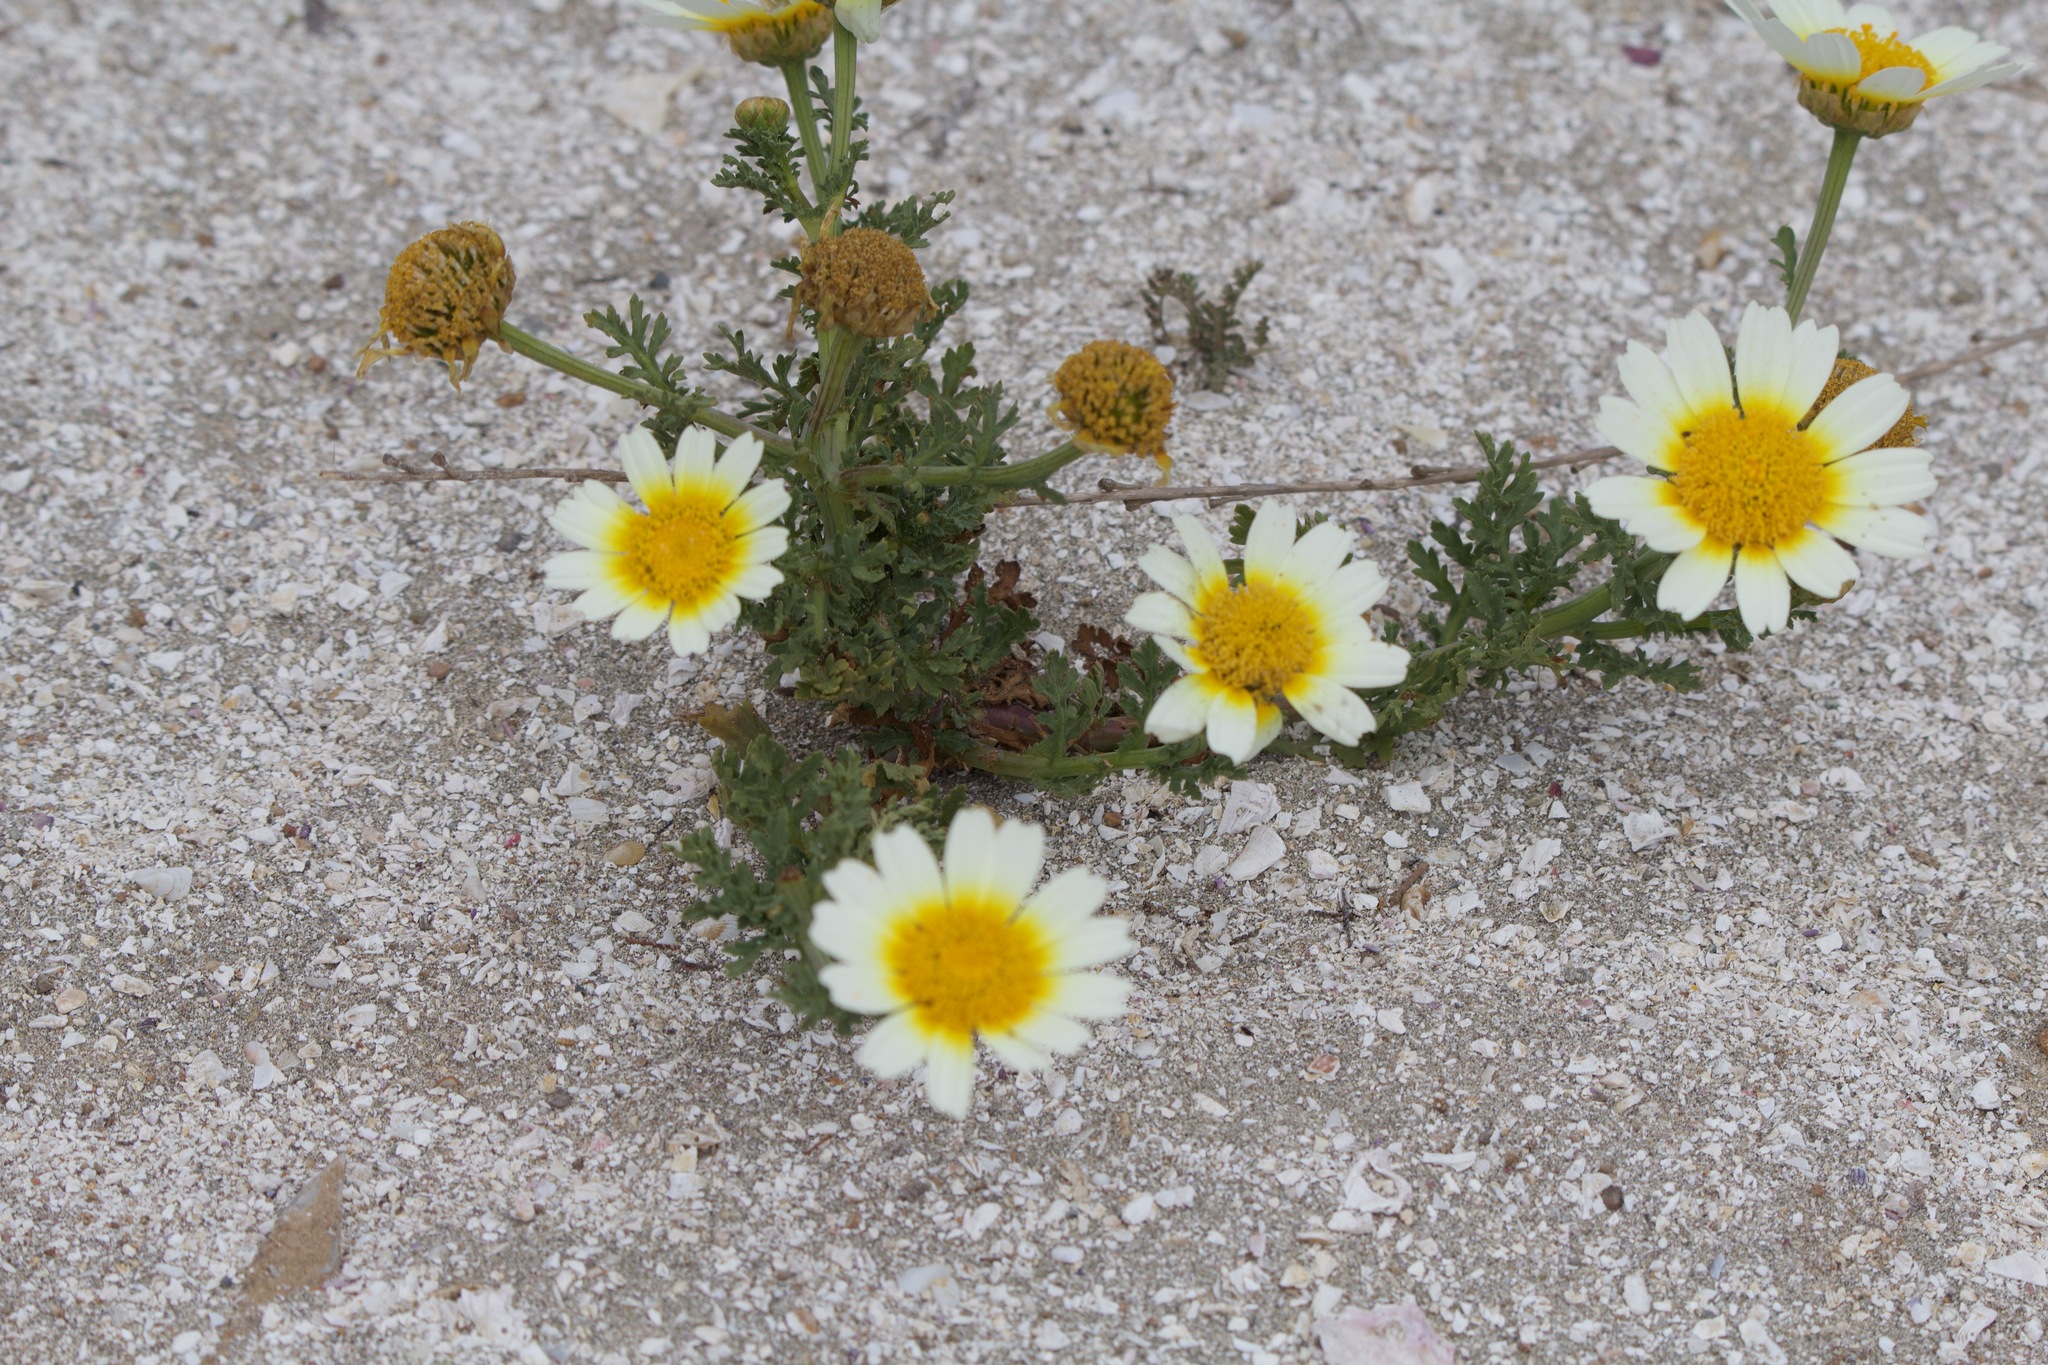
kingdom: Plantae
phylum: Tracheophyta
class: Magnoliopsida
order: Asterales
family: Asteraceae
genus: Glebionis
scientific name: Glebionis coronaria
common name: Crowndaisy
